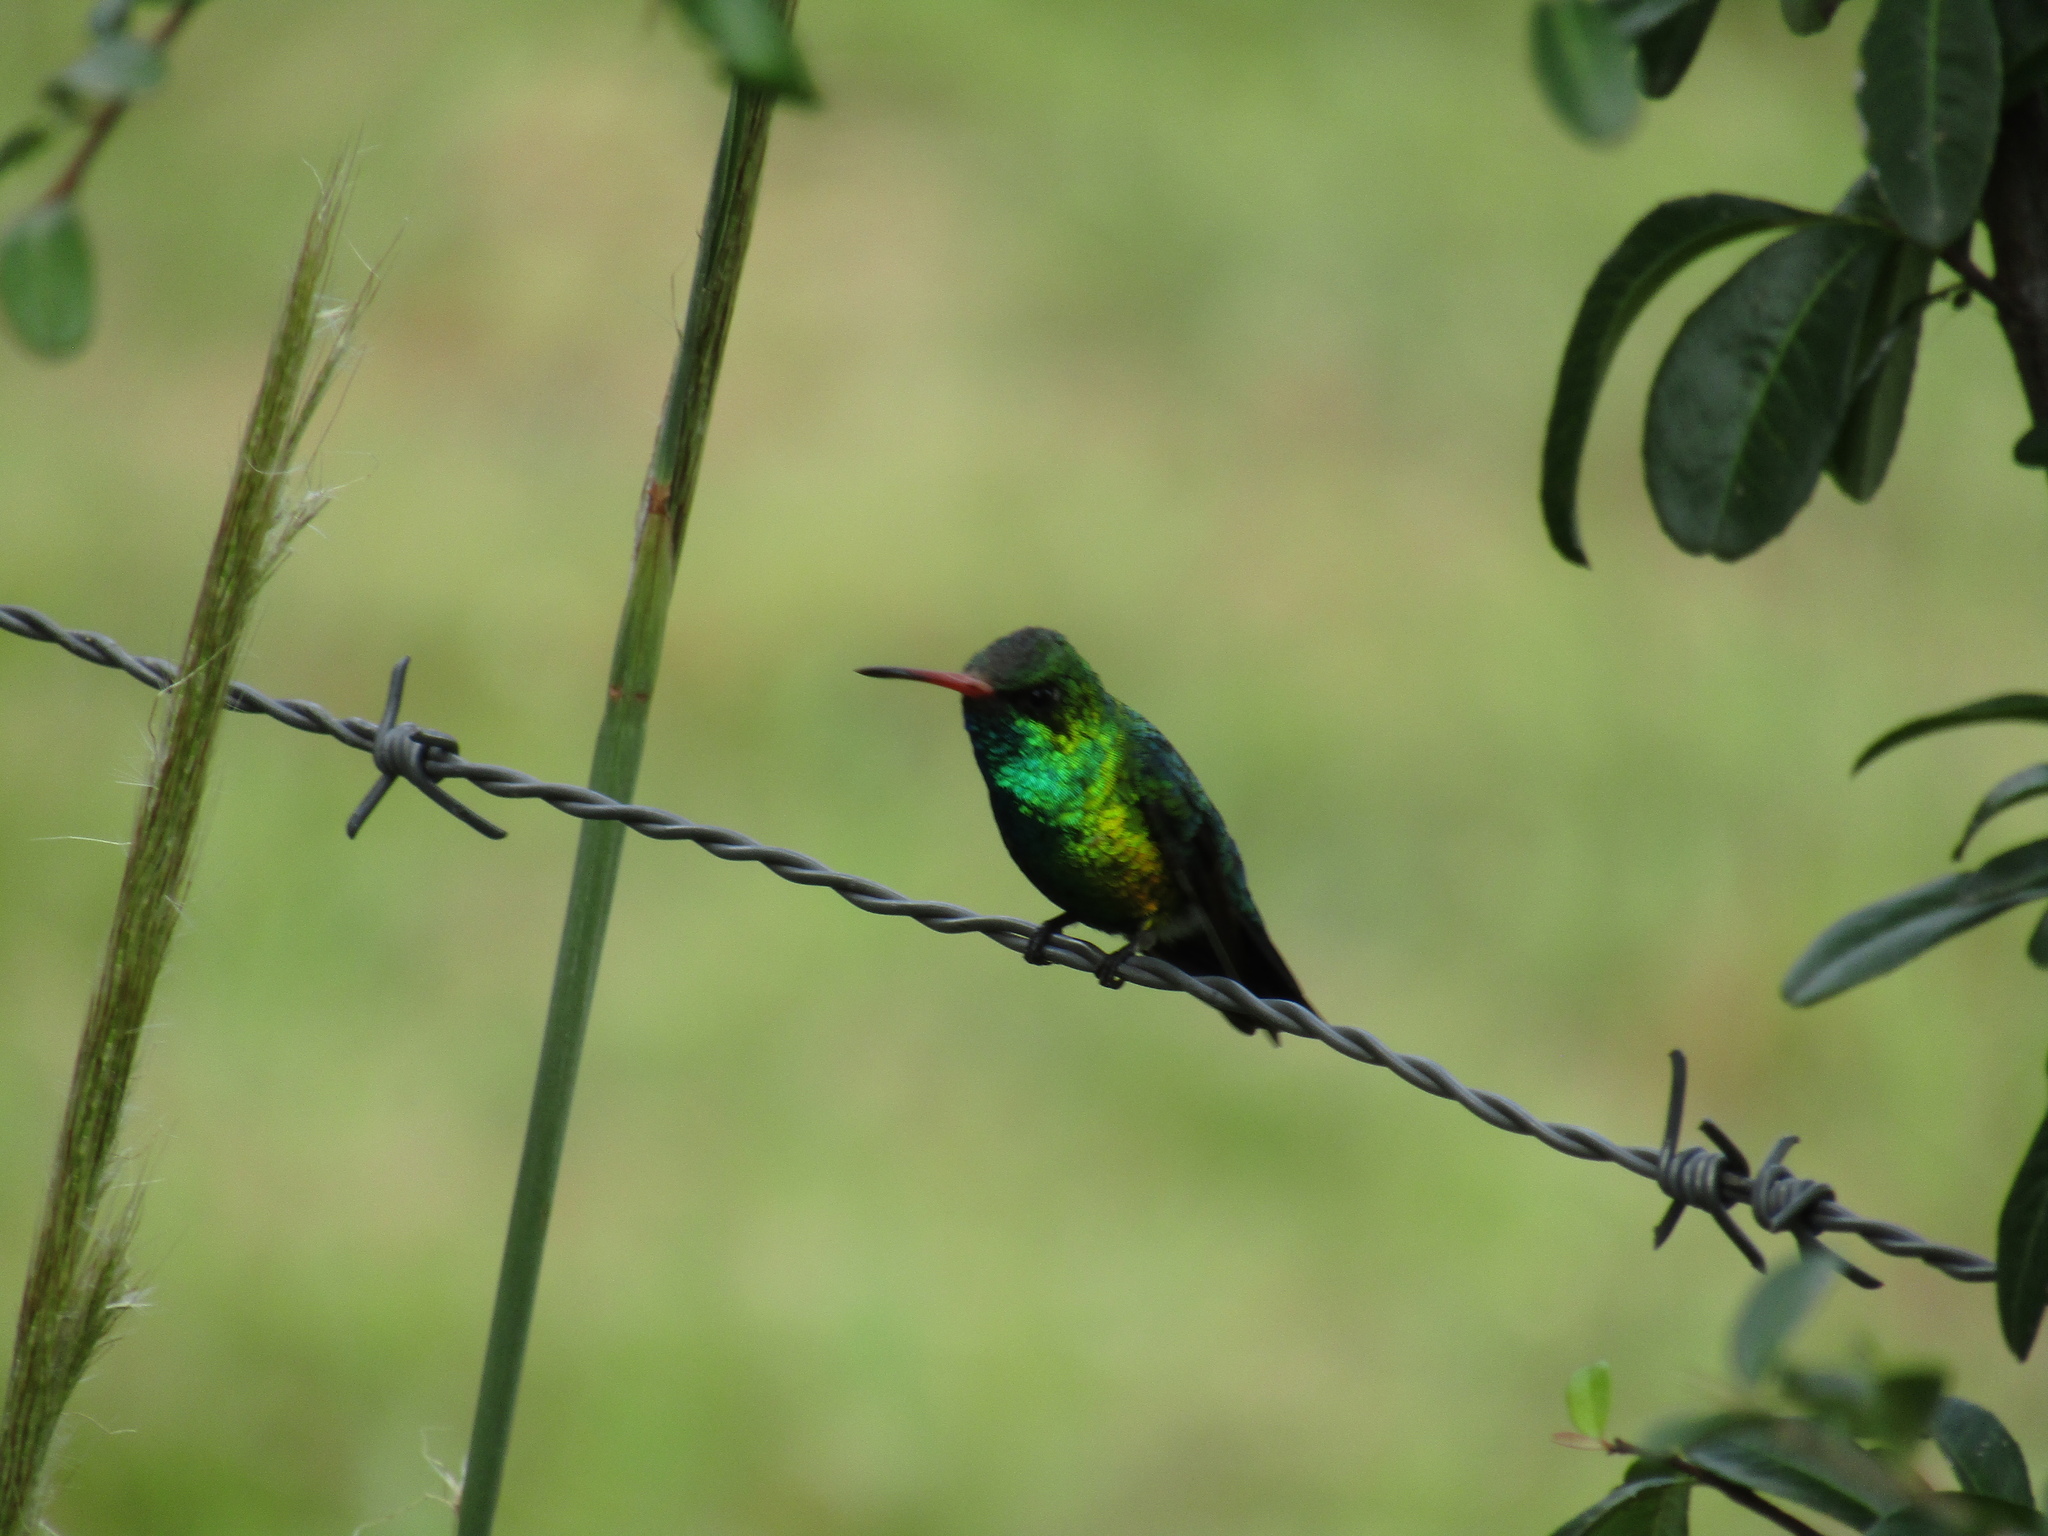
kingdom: Animalia
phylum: Chordata
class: Aves
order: Apodiformes
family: Trochilidae
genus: Chlorostilbon
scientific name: Chlorostilbon lucidus
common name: Glittering-bellied emerald
